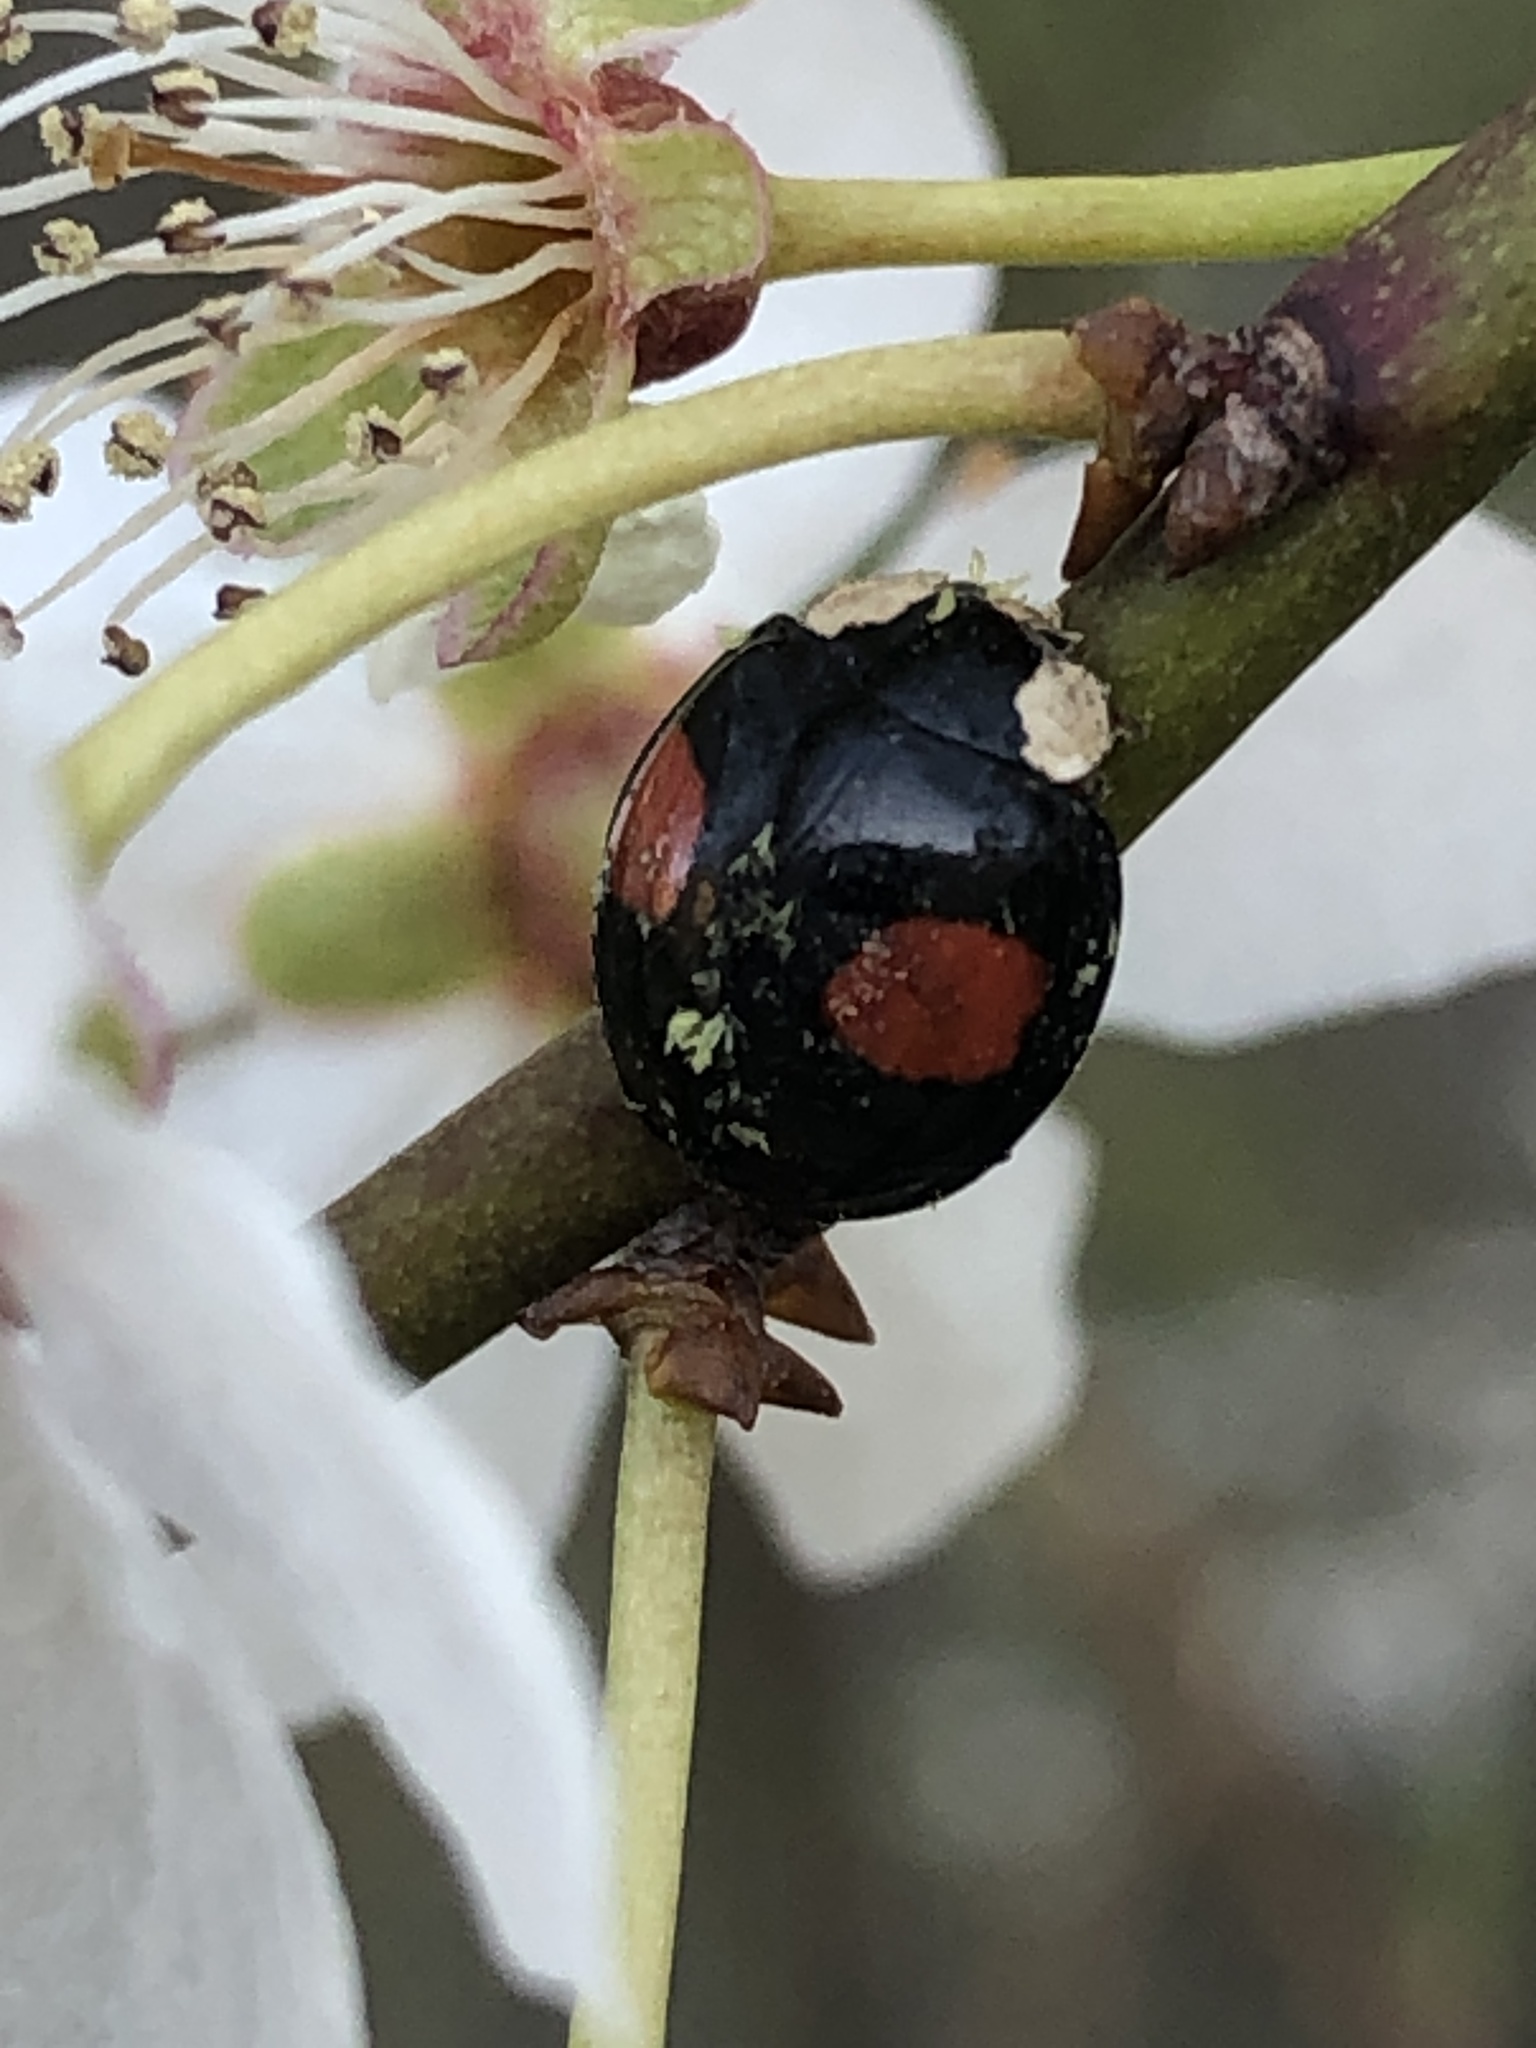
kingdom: Animalia
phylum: Arthropoda
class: Insecta
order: Coleoptera
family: Coccinellidae
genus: Harmonia
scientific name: Harmonia axyridis
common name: Harlequin ladybird
